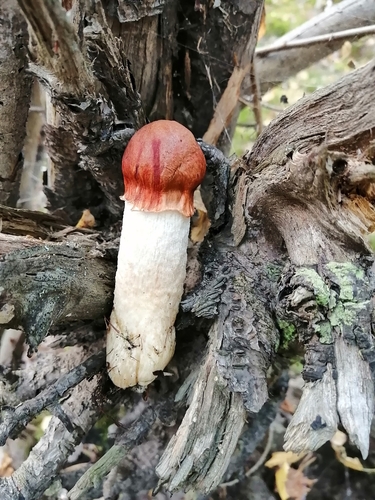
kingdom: Fungi
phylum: Basidiomycota
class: Agaricomycetes
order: Boletales
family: Boletaceae
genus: Leccinum
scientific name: Leccinum albostipitatum
